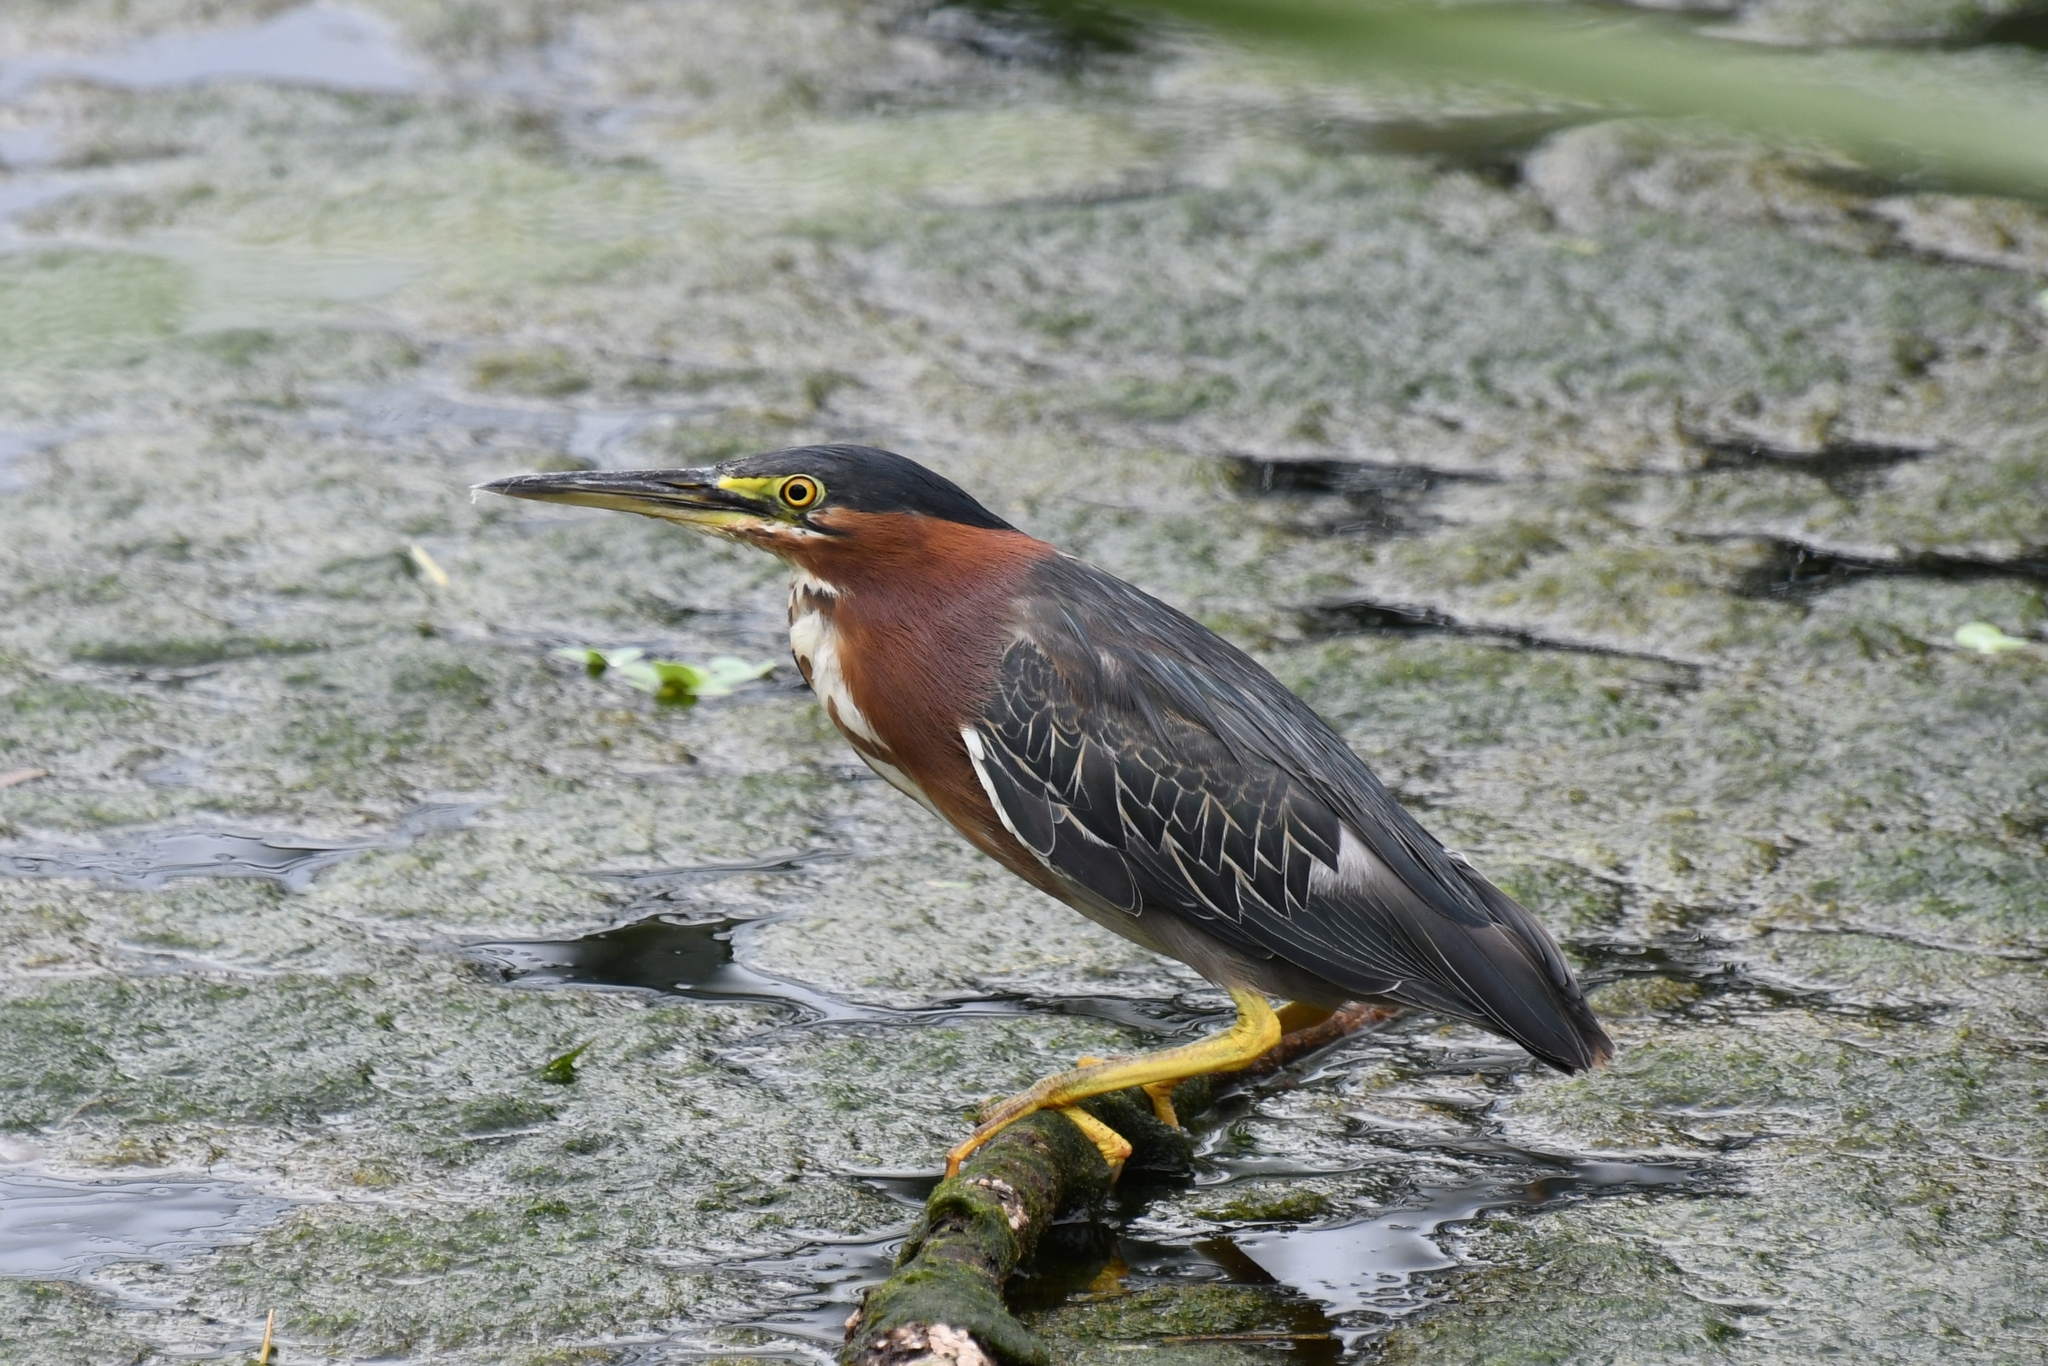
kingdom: Animalia
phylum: Chordata
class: Aves
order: Pelecaniformes
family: Ardeidae
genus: Butorides
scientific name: Butorides virescens
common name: Green heron
